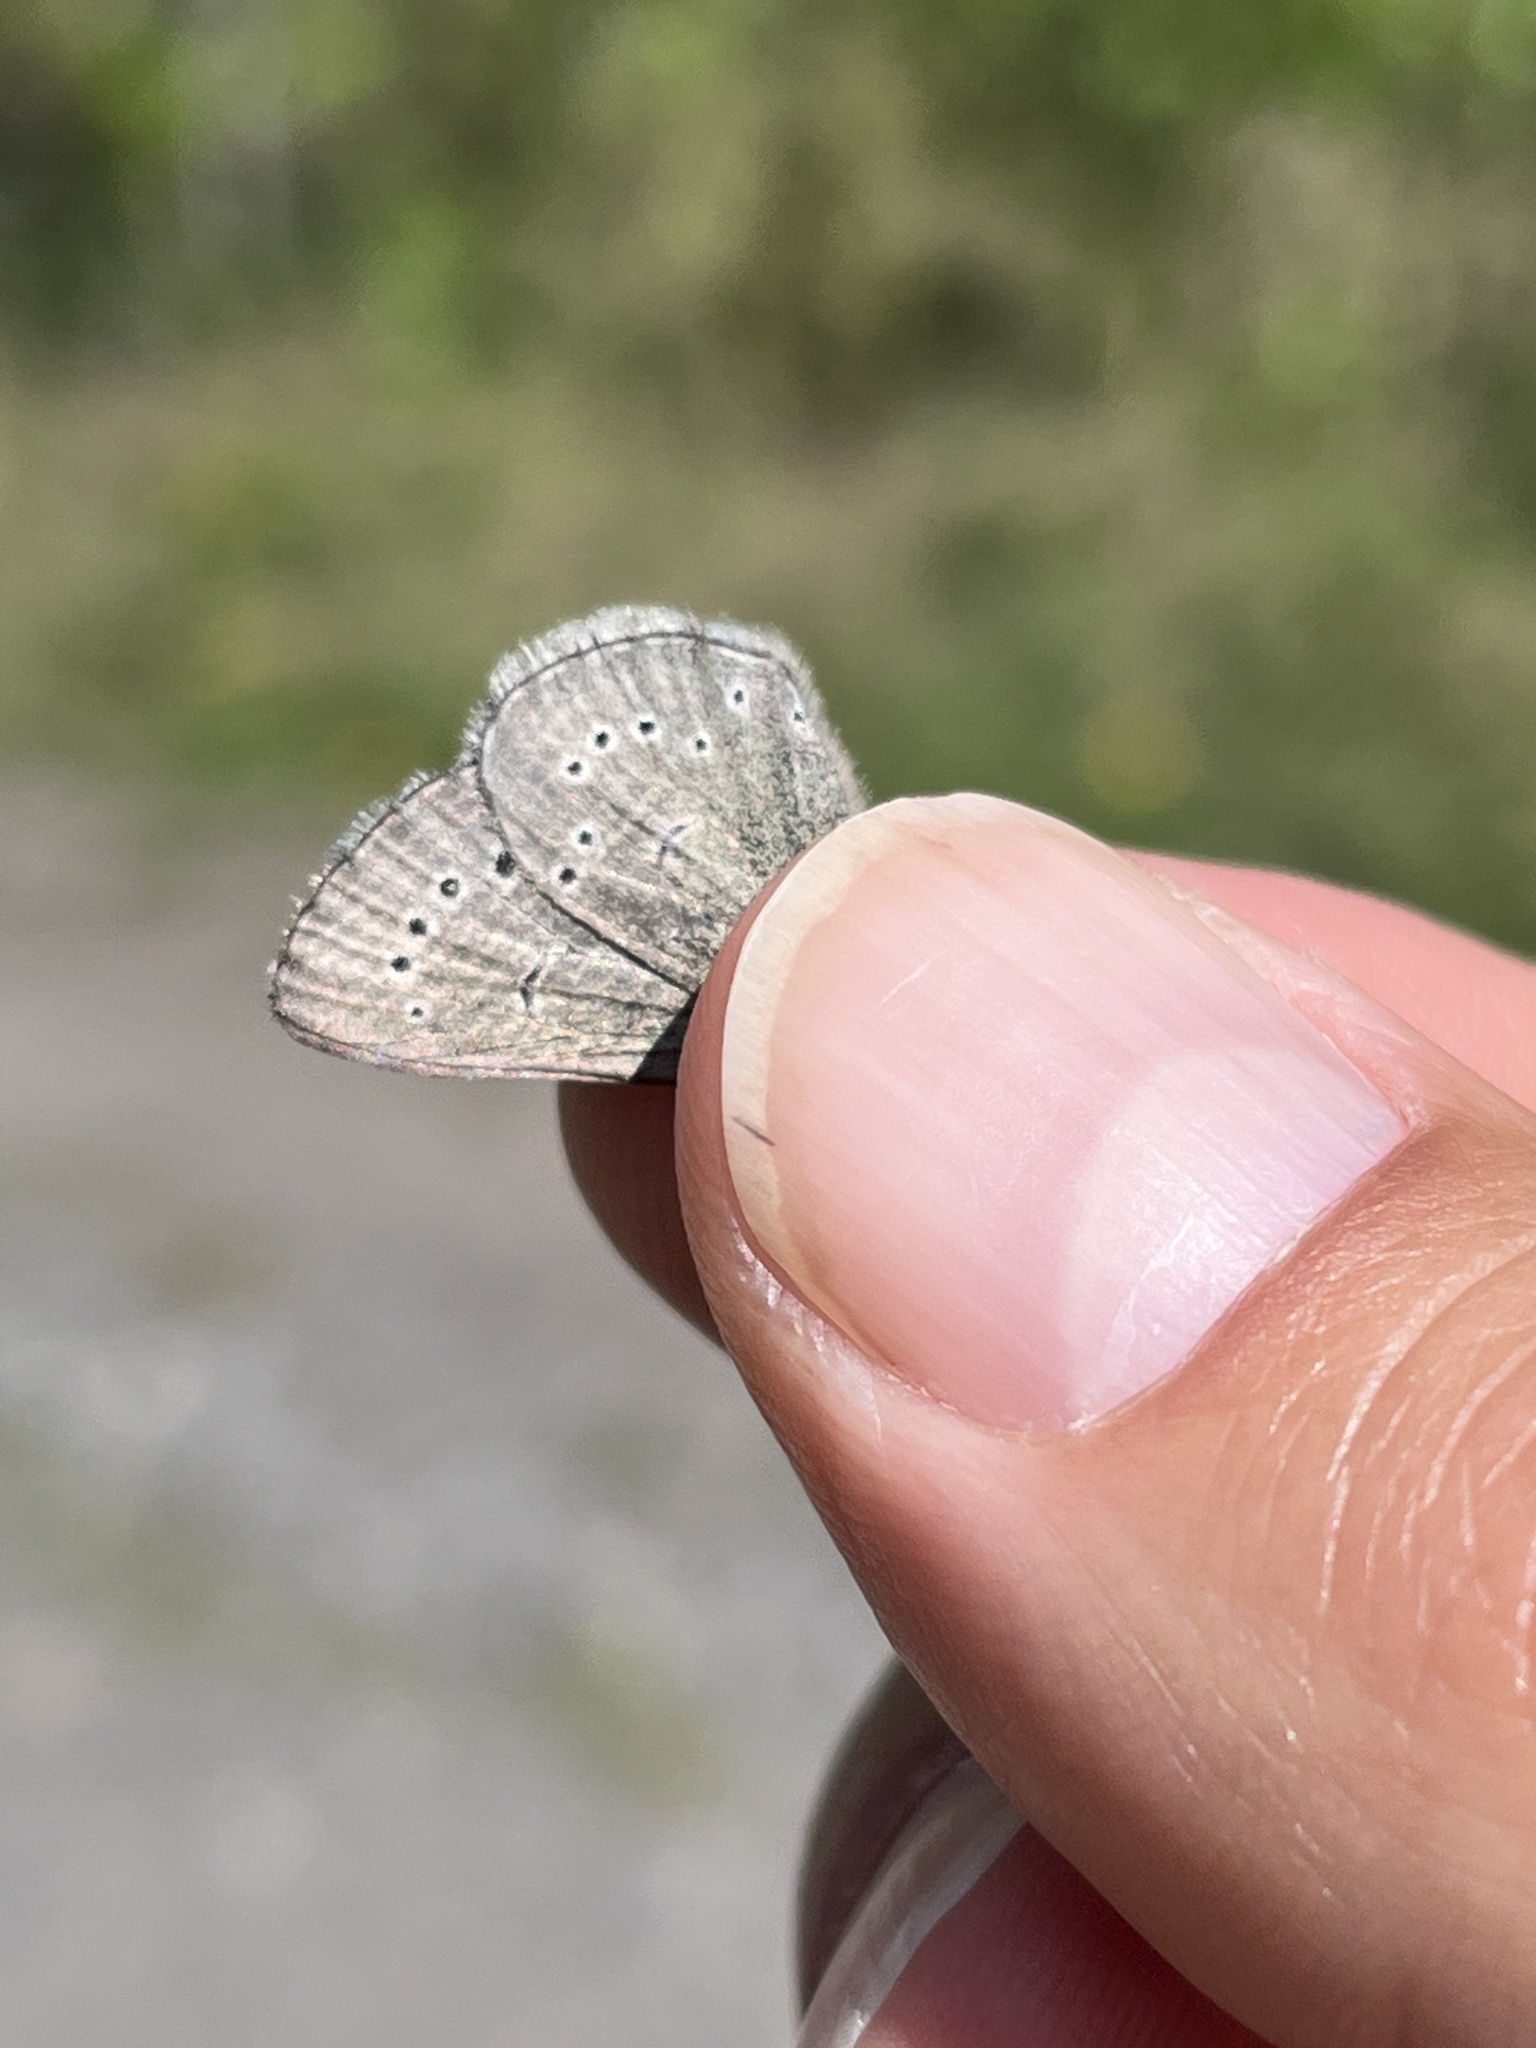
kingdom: Animalia
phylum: Arthropoda
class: Insecta
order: Lepidoptera
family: Lycaenidae
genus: Glaucopsyche
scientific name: Glaucopsyche lygdamus
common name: Silvery blue
